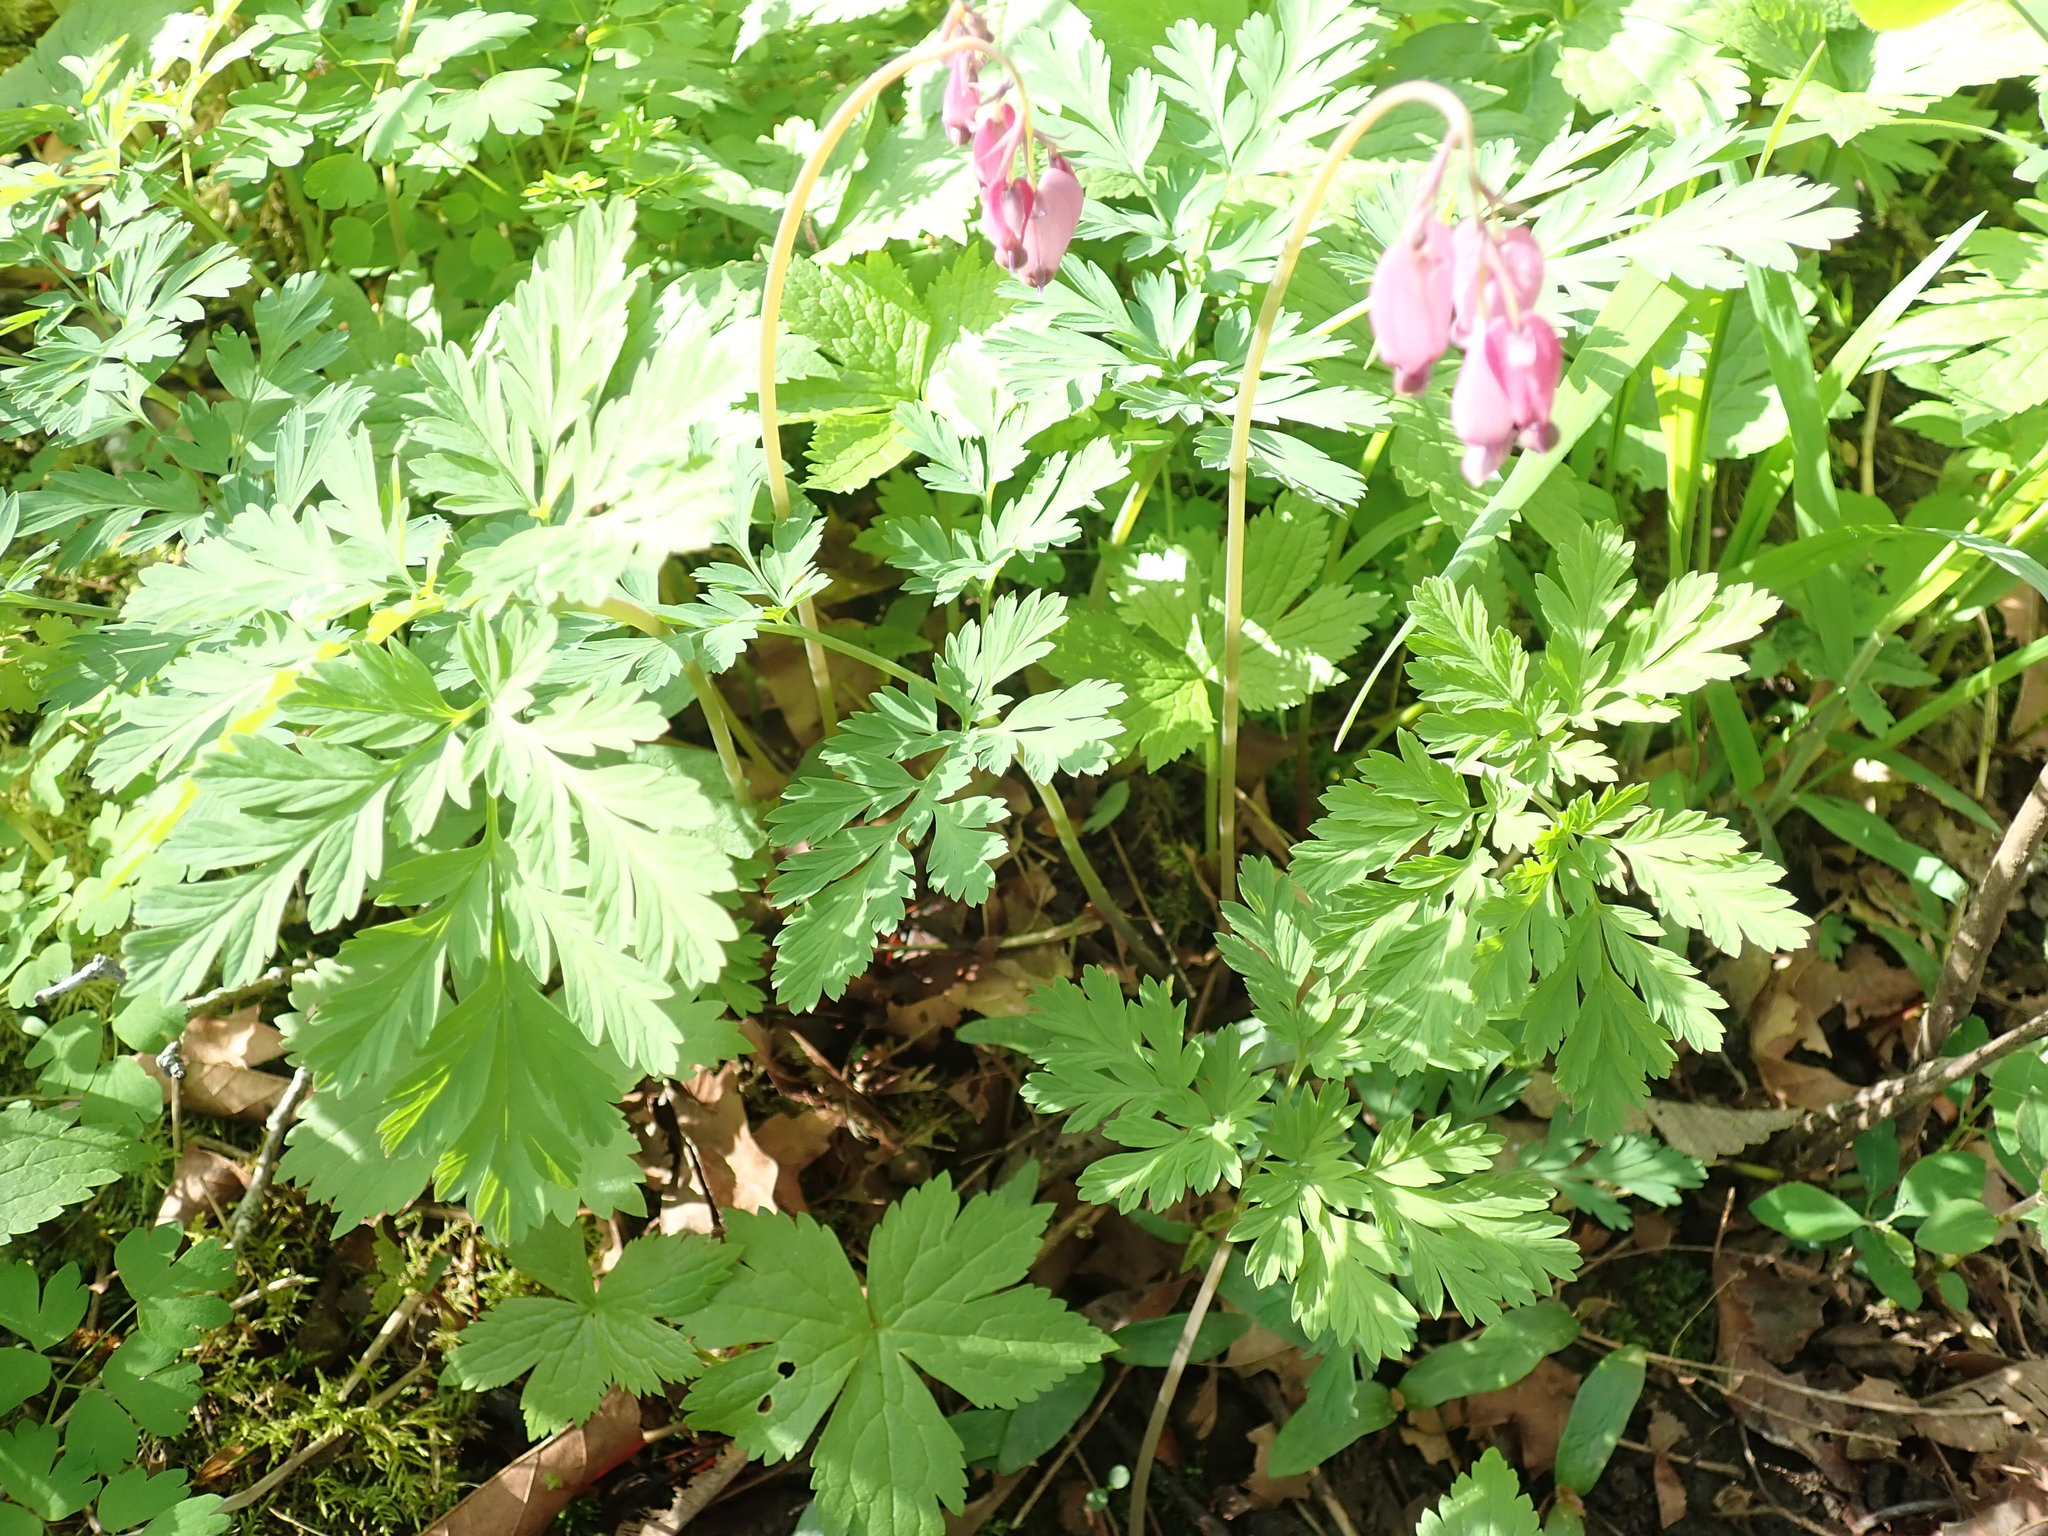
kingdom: Plantae
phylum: Tracheophyta
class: Magnoliopsida
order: Ranunculales
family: Papaveraceae
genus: Dicentra
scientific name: Dicentra formosa
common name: Bleeding-heart
